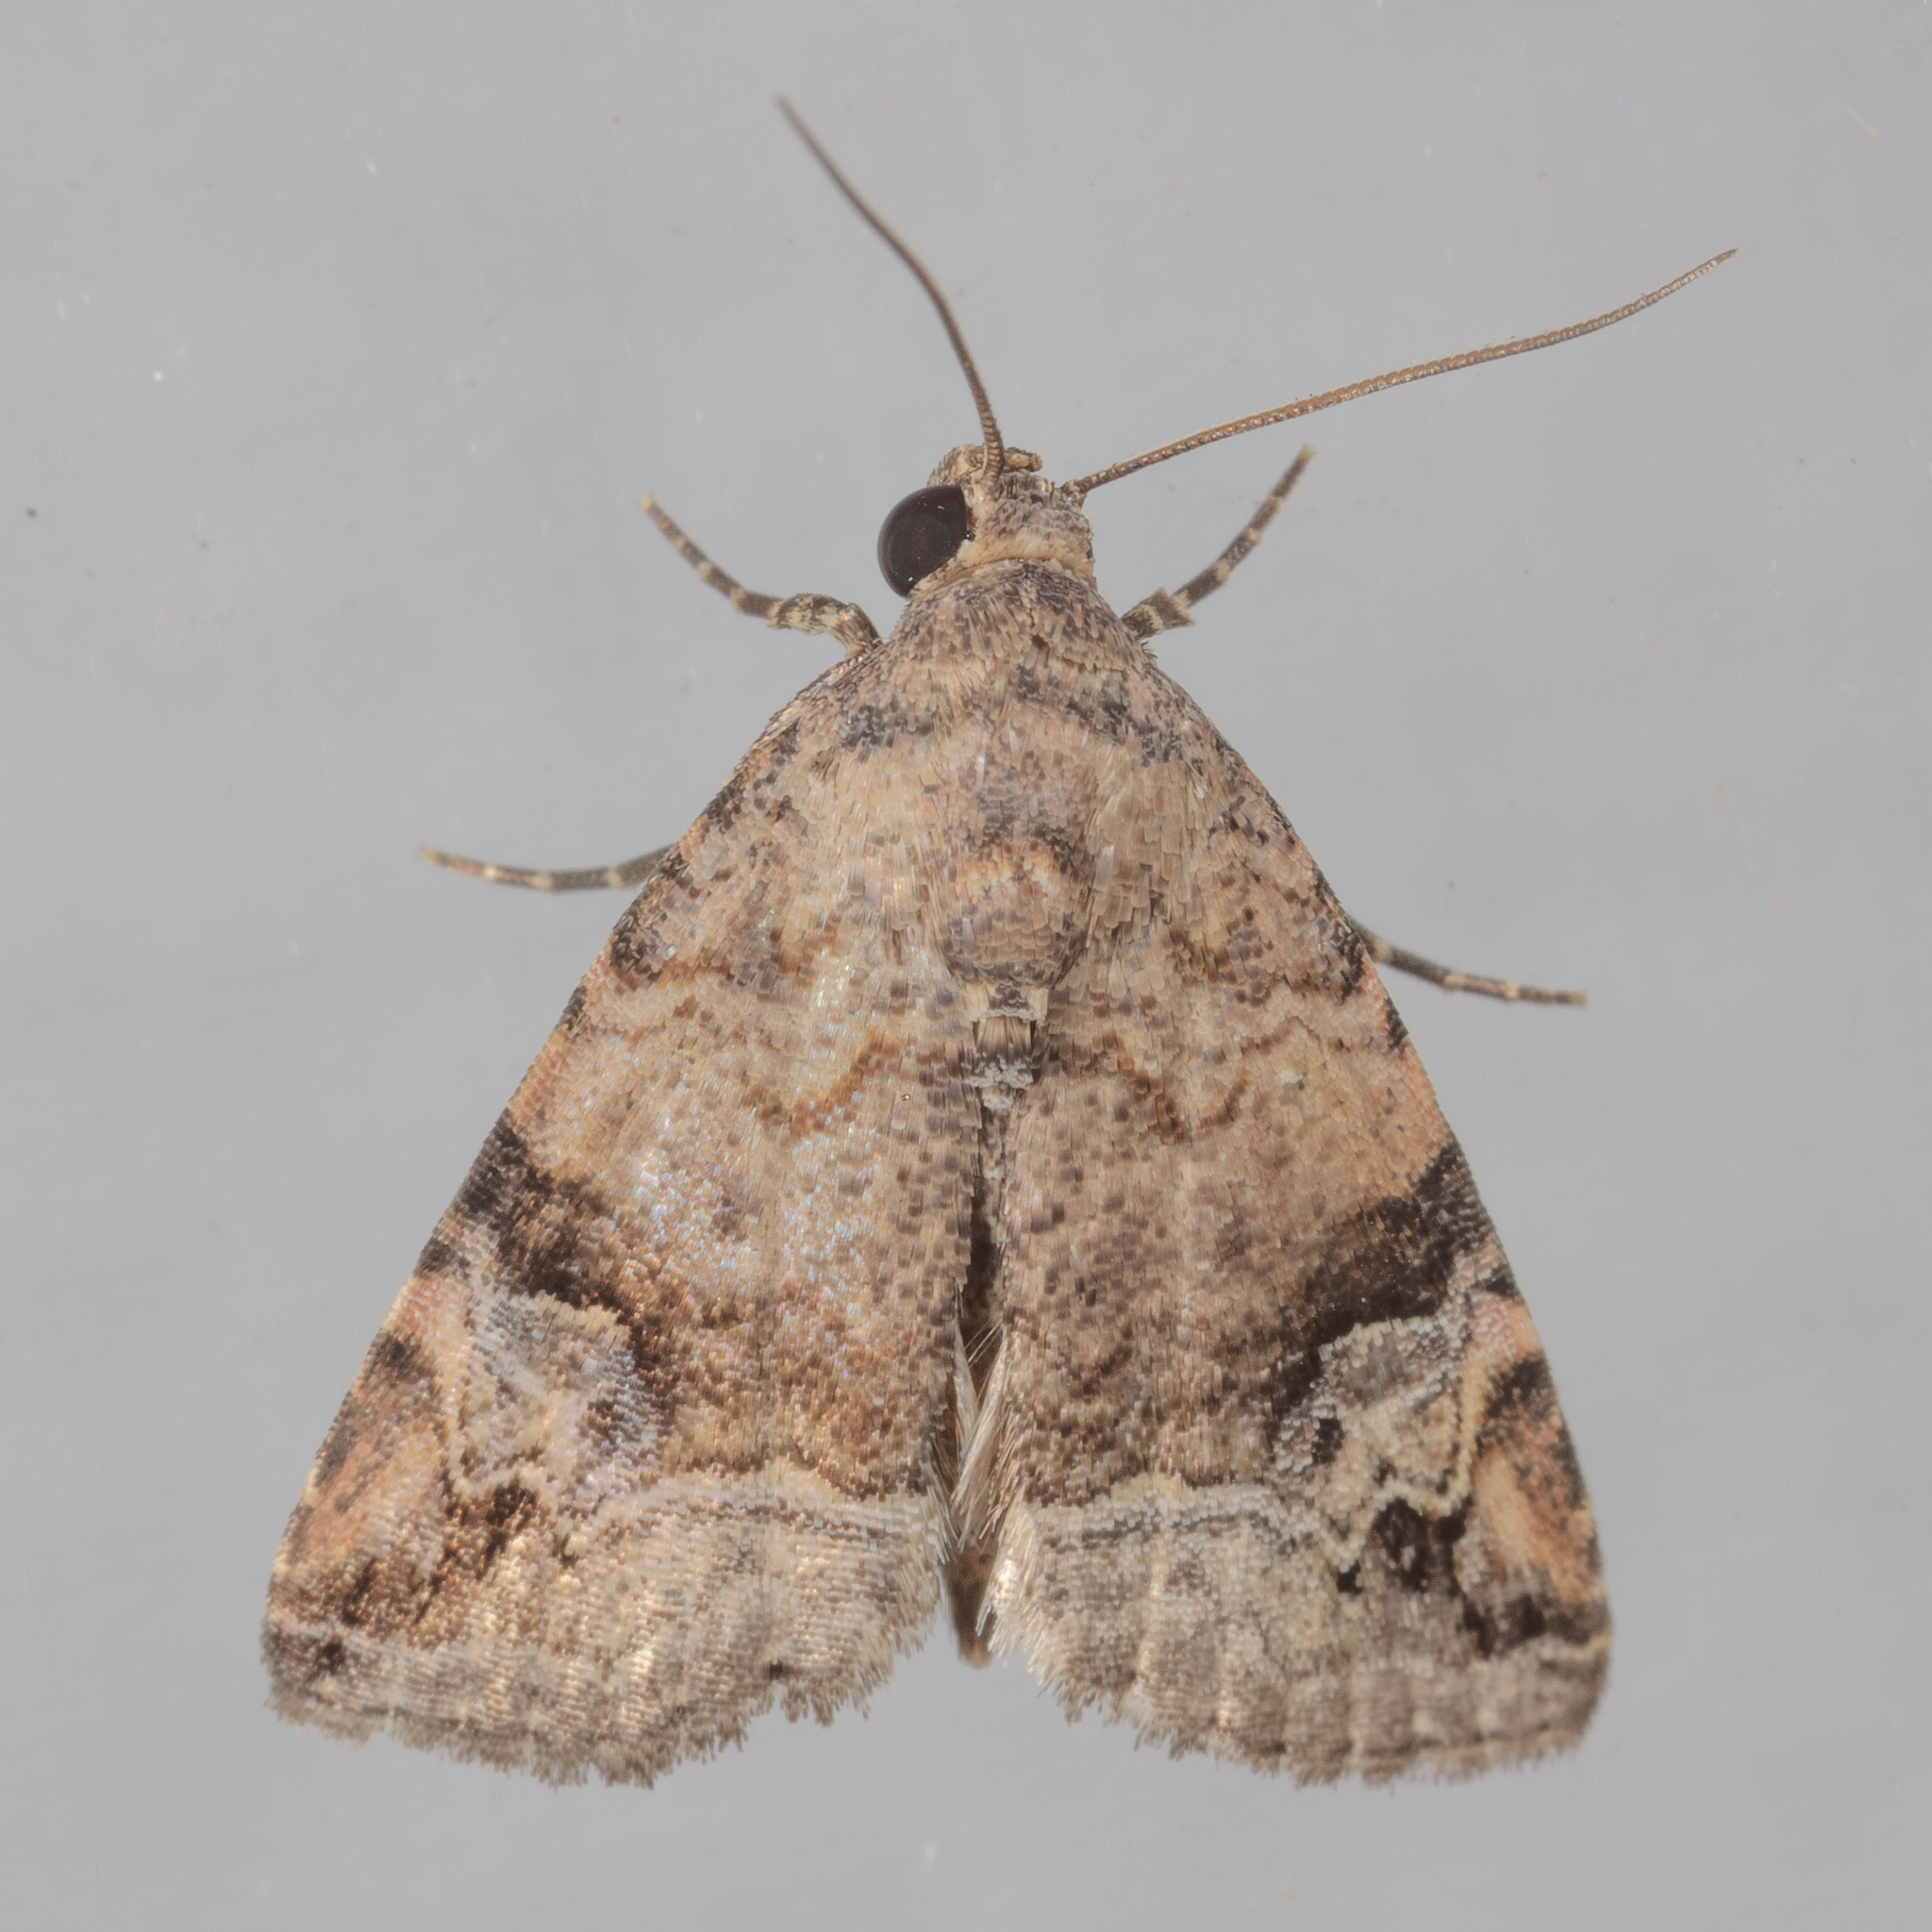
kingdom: Animalia
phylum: Arthropoda
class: Insecta
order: Lepidoptera
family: Noctuidae
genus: Ozarba
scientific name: Ozarba aeria
